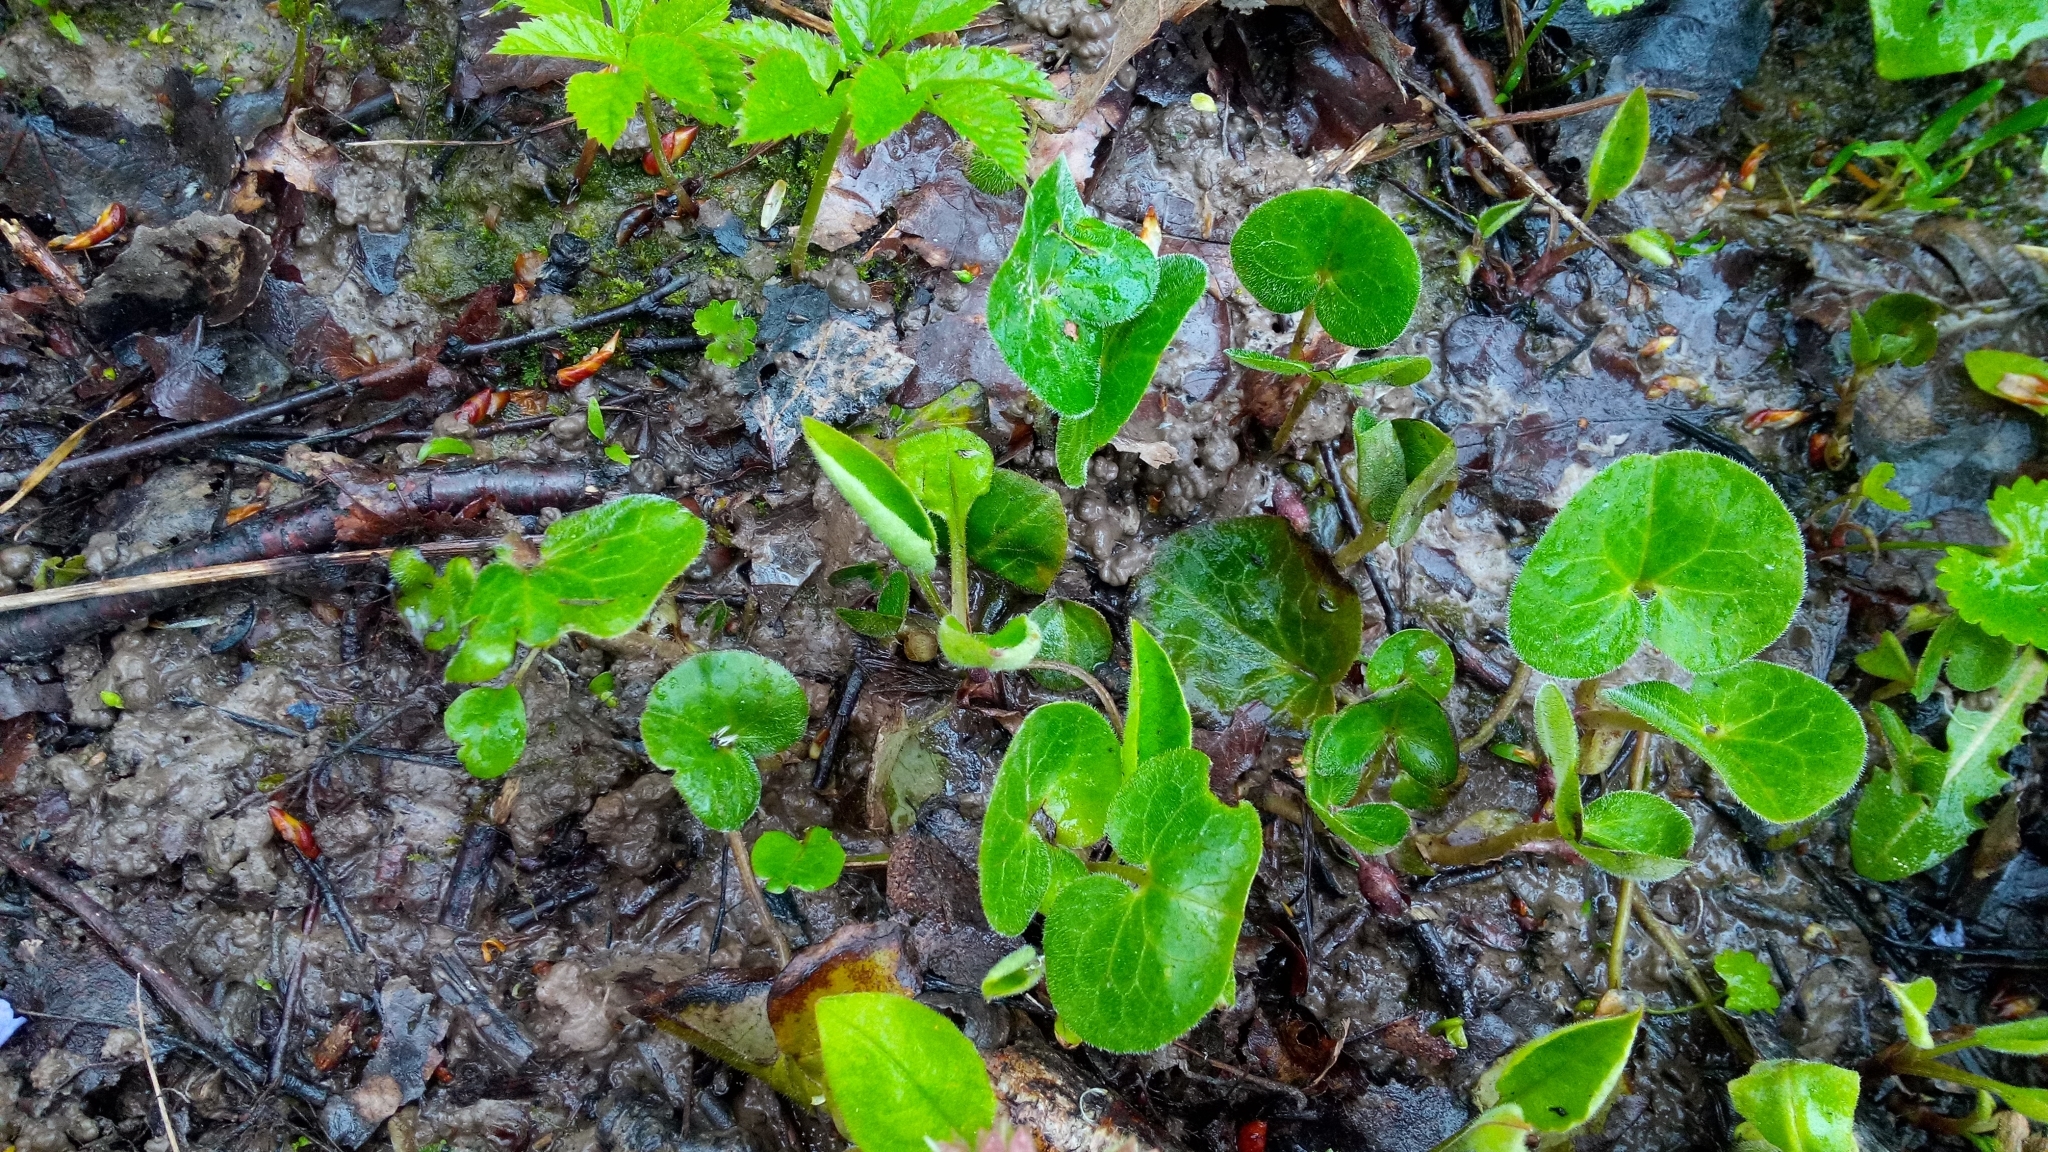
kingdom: Plantae
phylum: Tracheophyta
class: Magnoliopsida
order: Piperales
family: Aristolochiaceae
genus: Asarum
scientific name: Asarum europaeum
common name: Asarabacca
